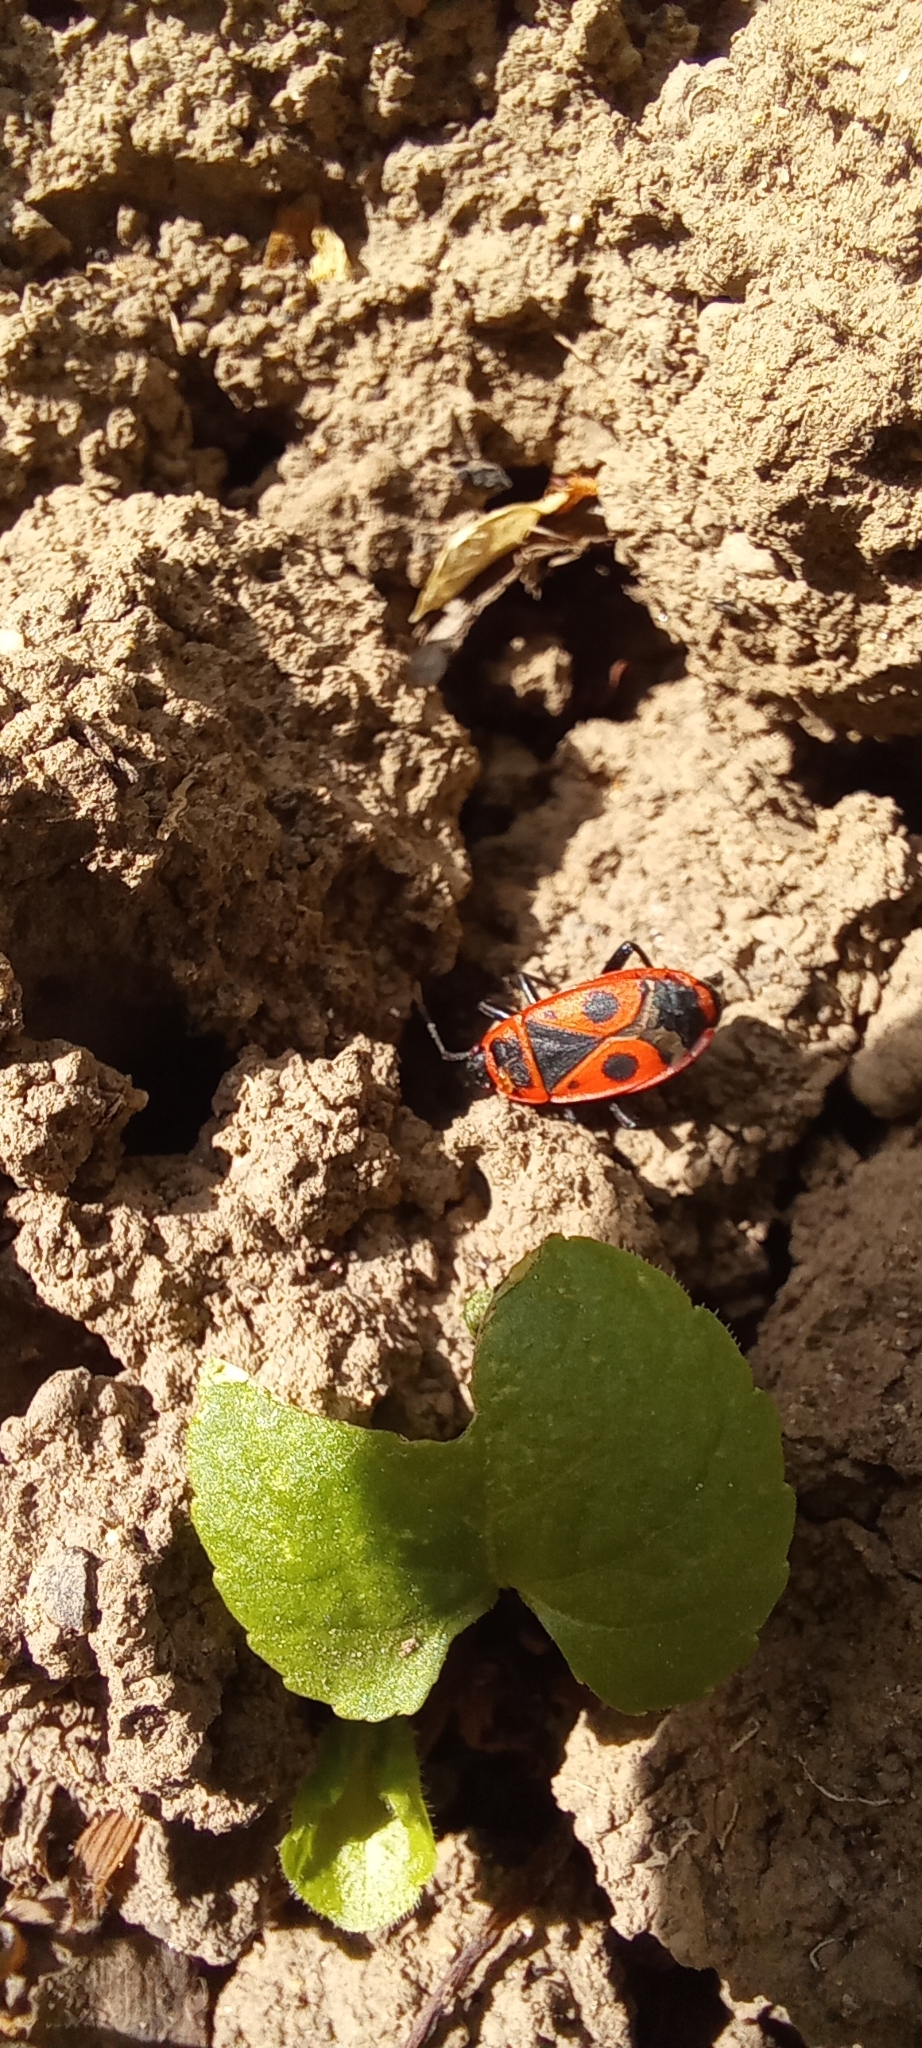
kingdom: Animalia
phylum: Arthropoda
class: Insecta
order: Hemiptera
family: Pyrrhocoridae
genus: Pyrrhocoris
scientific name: Pyrrhocoris apterus
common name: Firebug
